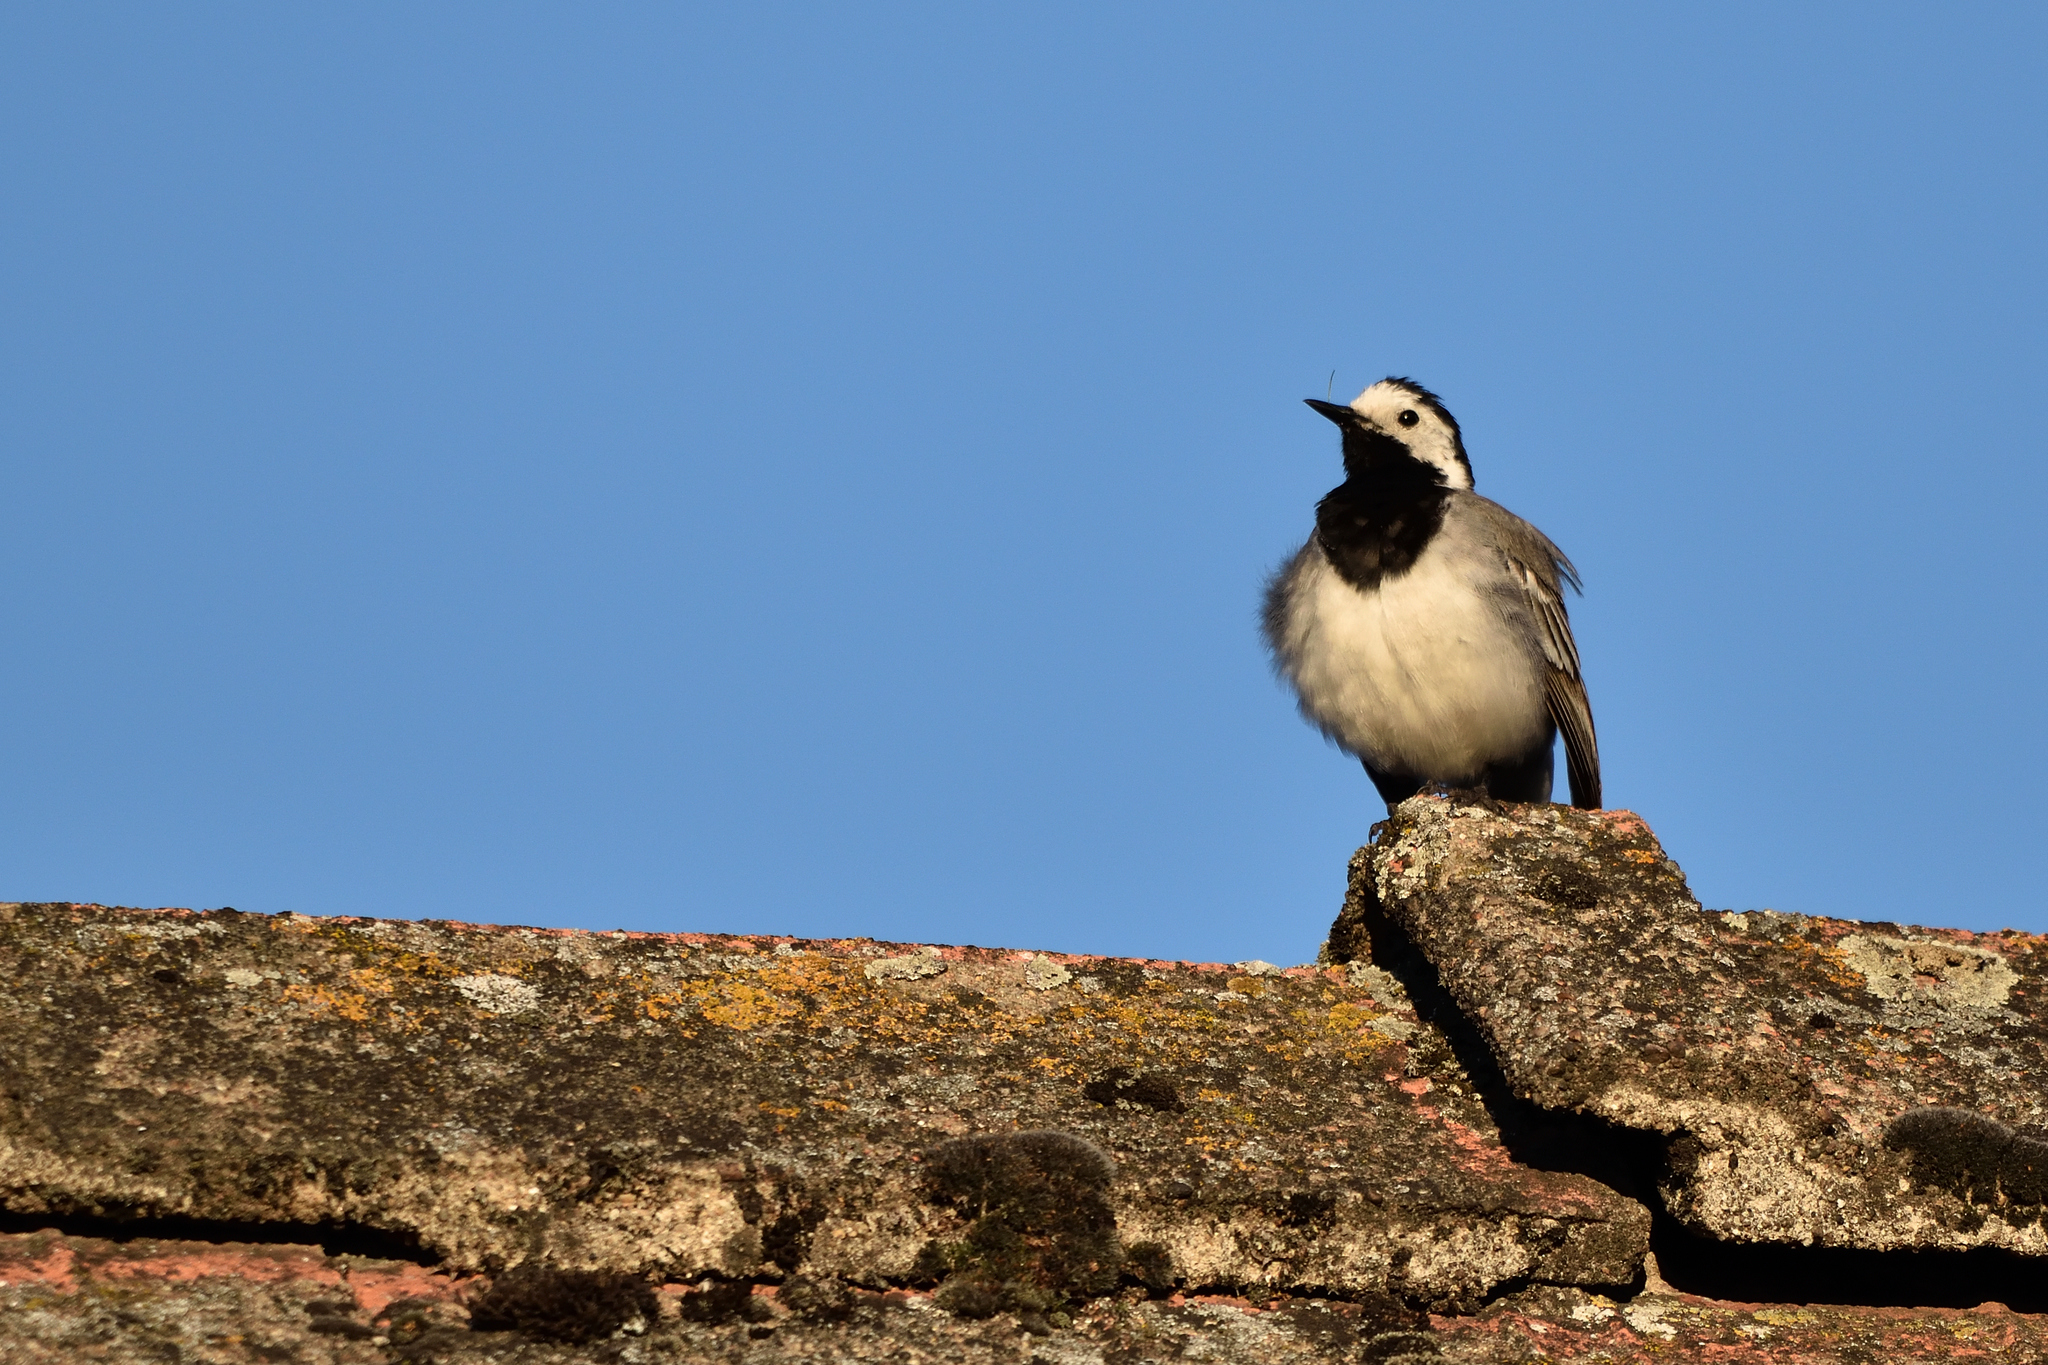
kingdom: Animalia
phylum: Chordata
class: Aves
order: Passeriformes
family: Motacillidae
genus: Motacilla
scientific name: Motacilla alba
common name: White wagtail
